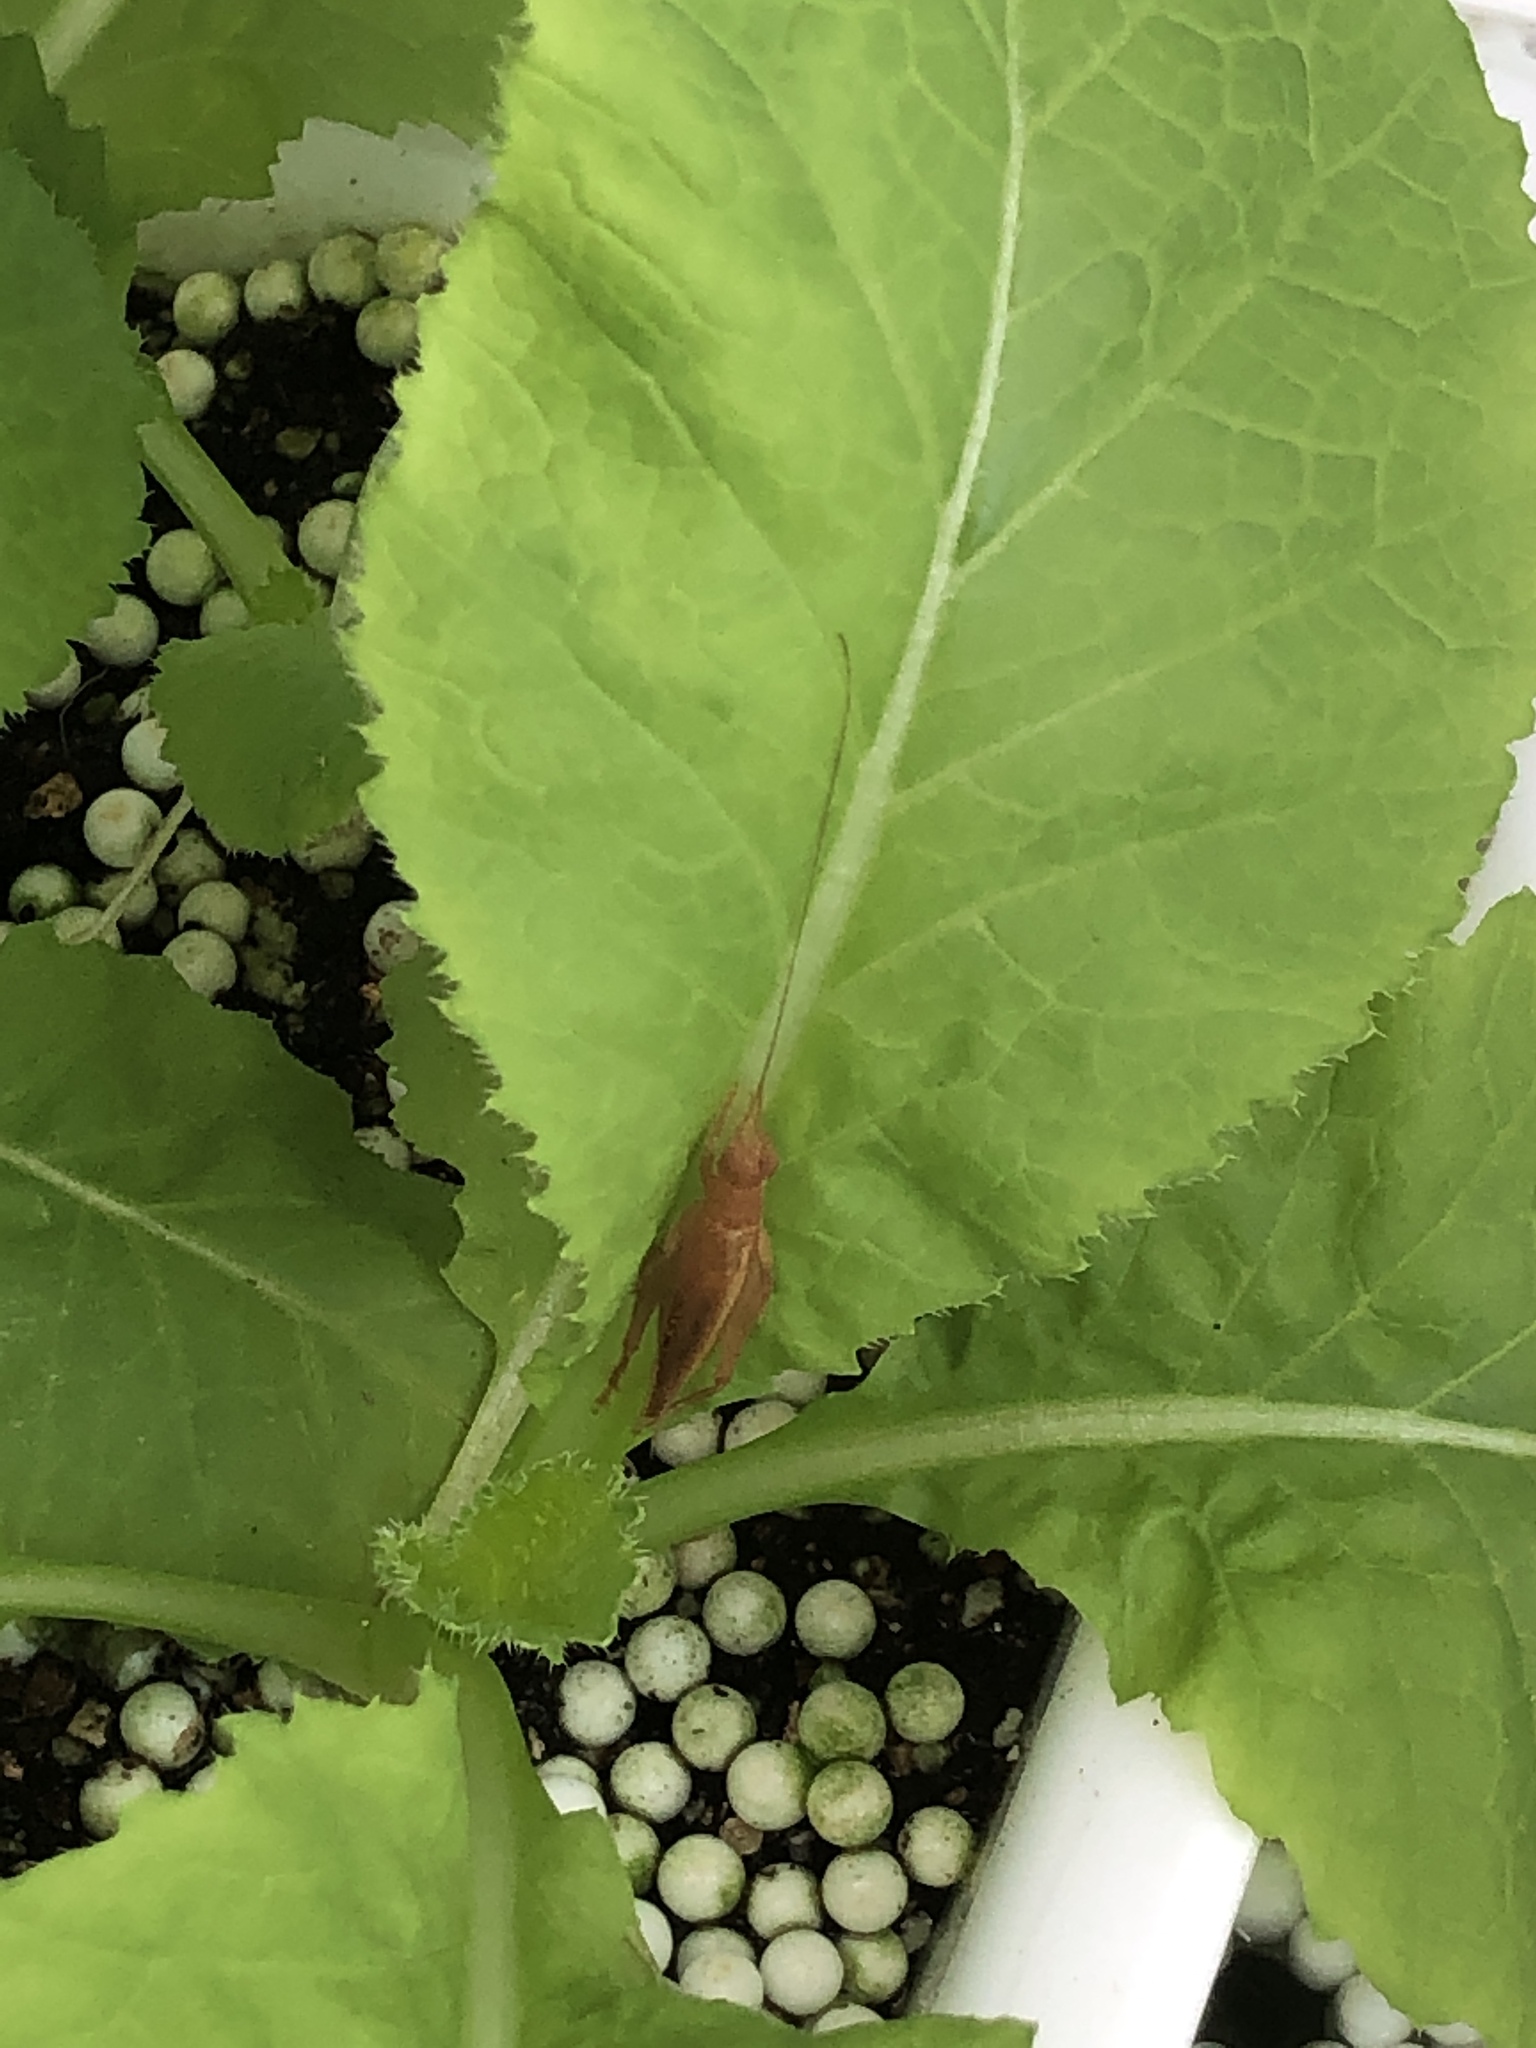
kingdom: Animalia
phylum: Arthropoda
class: Insecta
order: Orthoptera
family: Gryllidae
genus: Aphonoides
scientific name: Aphonoides rufescens
